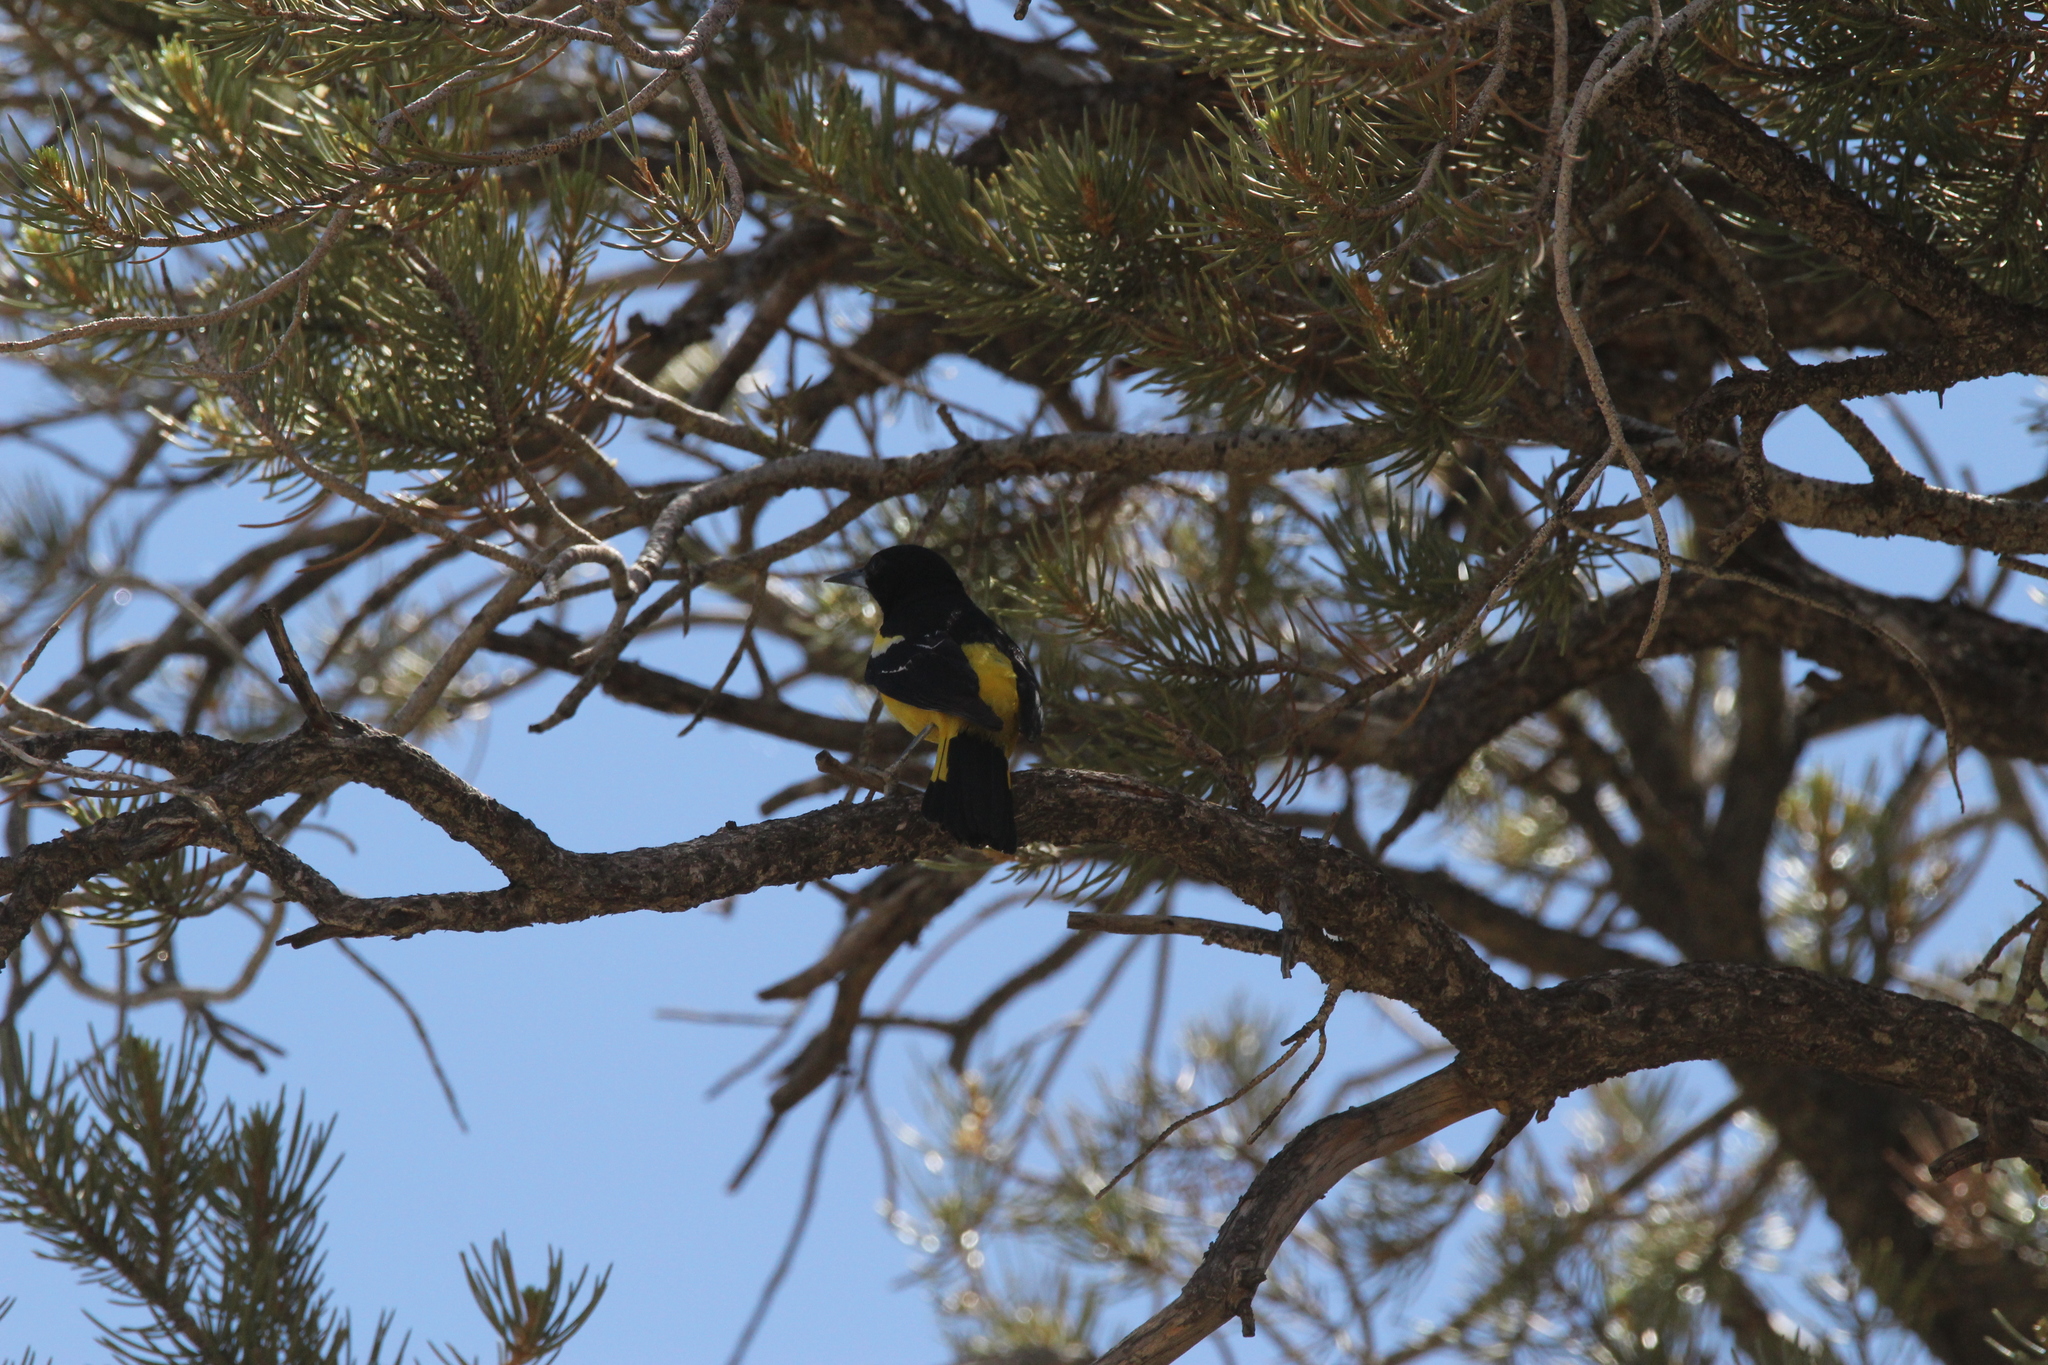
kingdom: Animalia
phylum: Chordata
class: Aves
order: Passeriformes
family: Icteridae
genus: Icterus
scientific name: Icterus parisorum
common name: Scott's oriole
